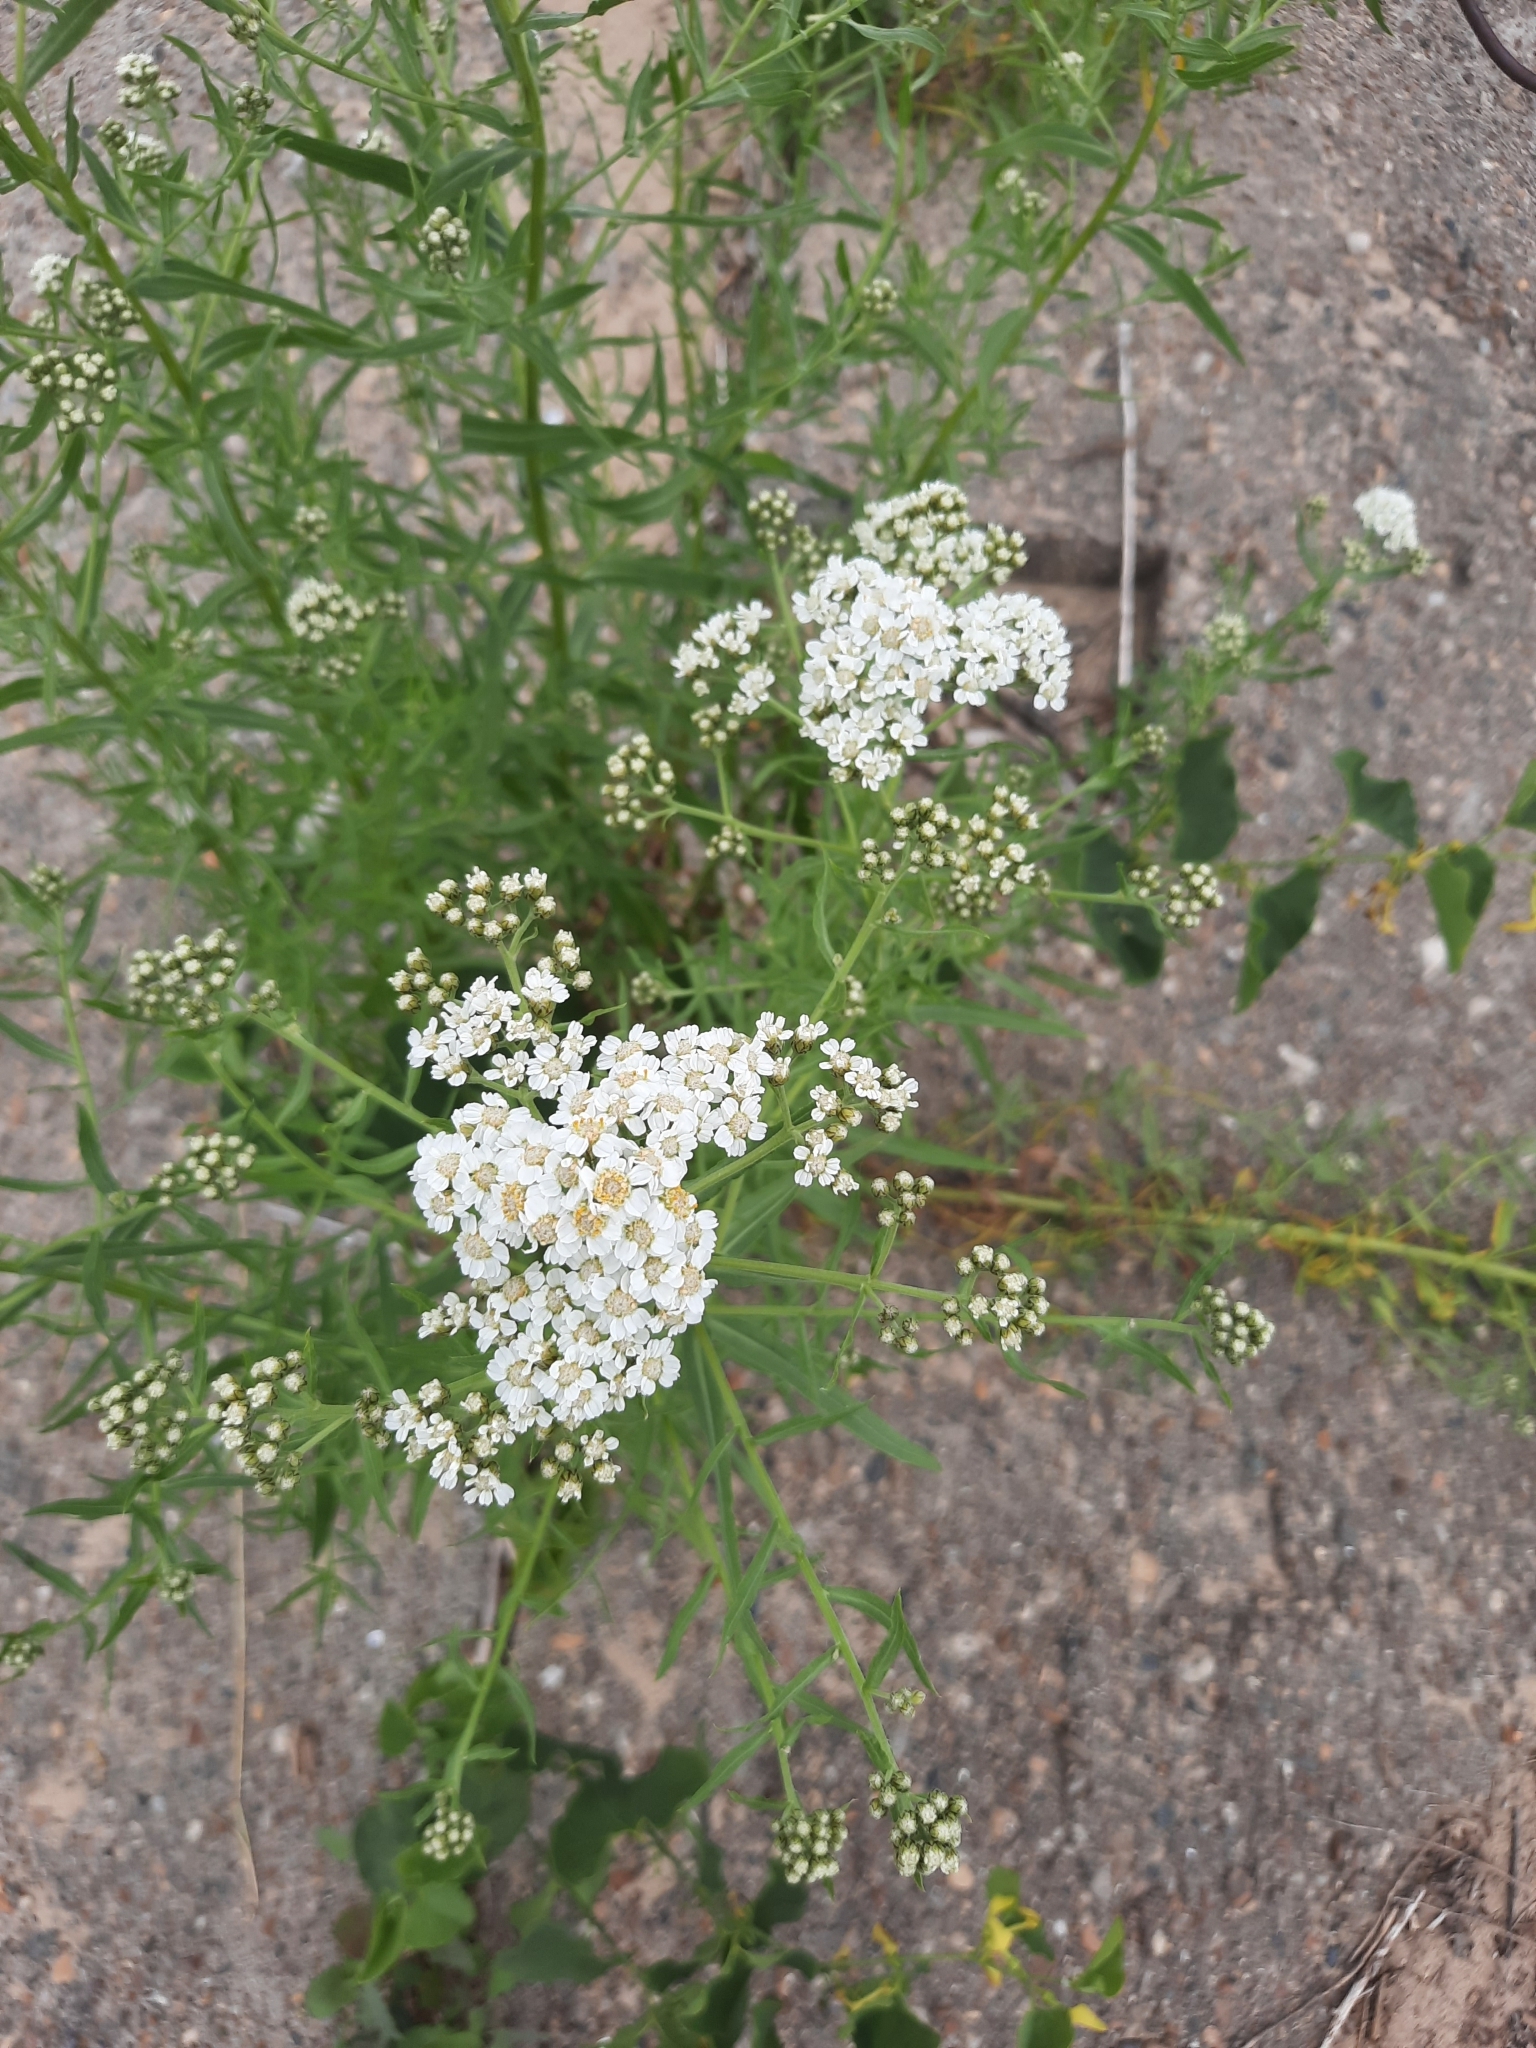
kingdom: Plantae
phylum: Tracheophyta
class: Magnoliopsida
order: Asterales
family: Asteraceae
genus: Achillea
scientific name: Achillea salicifolia
